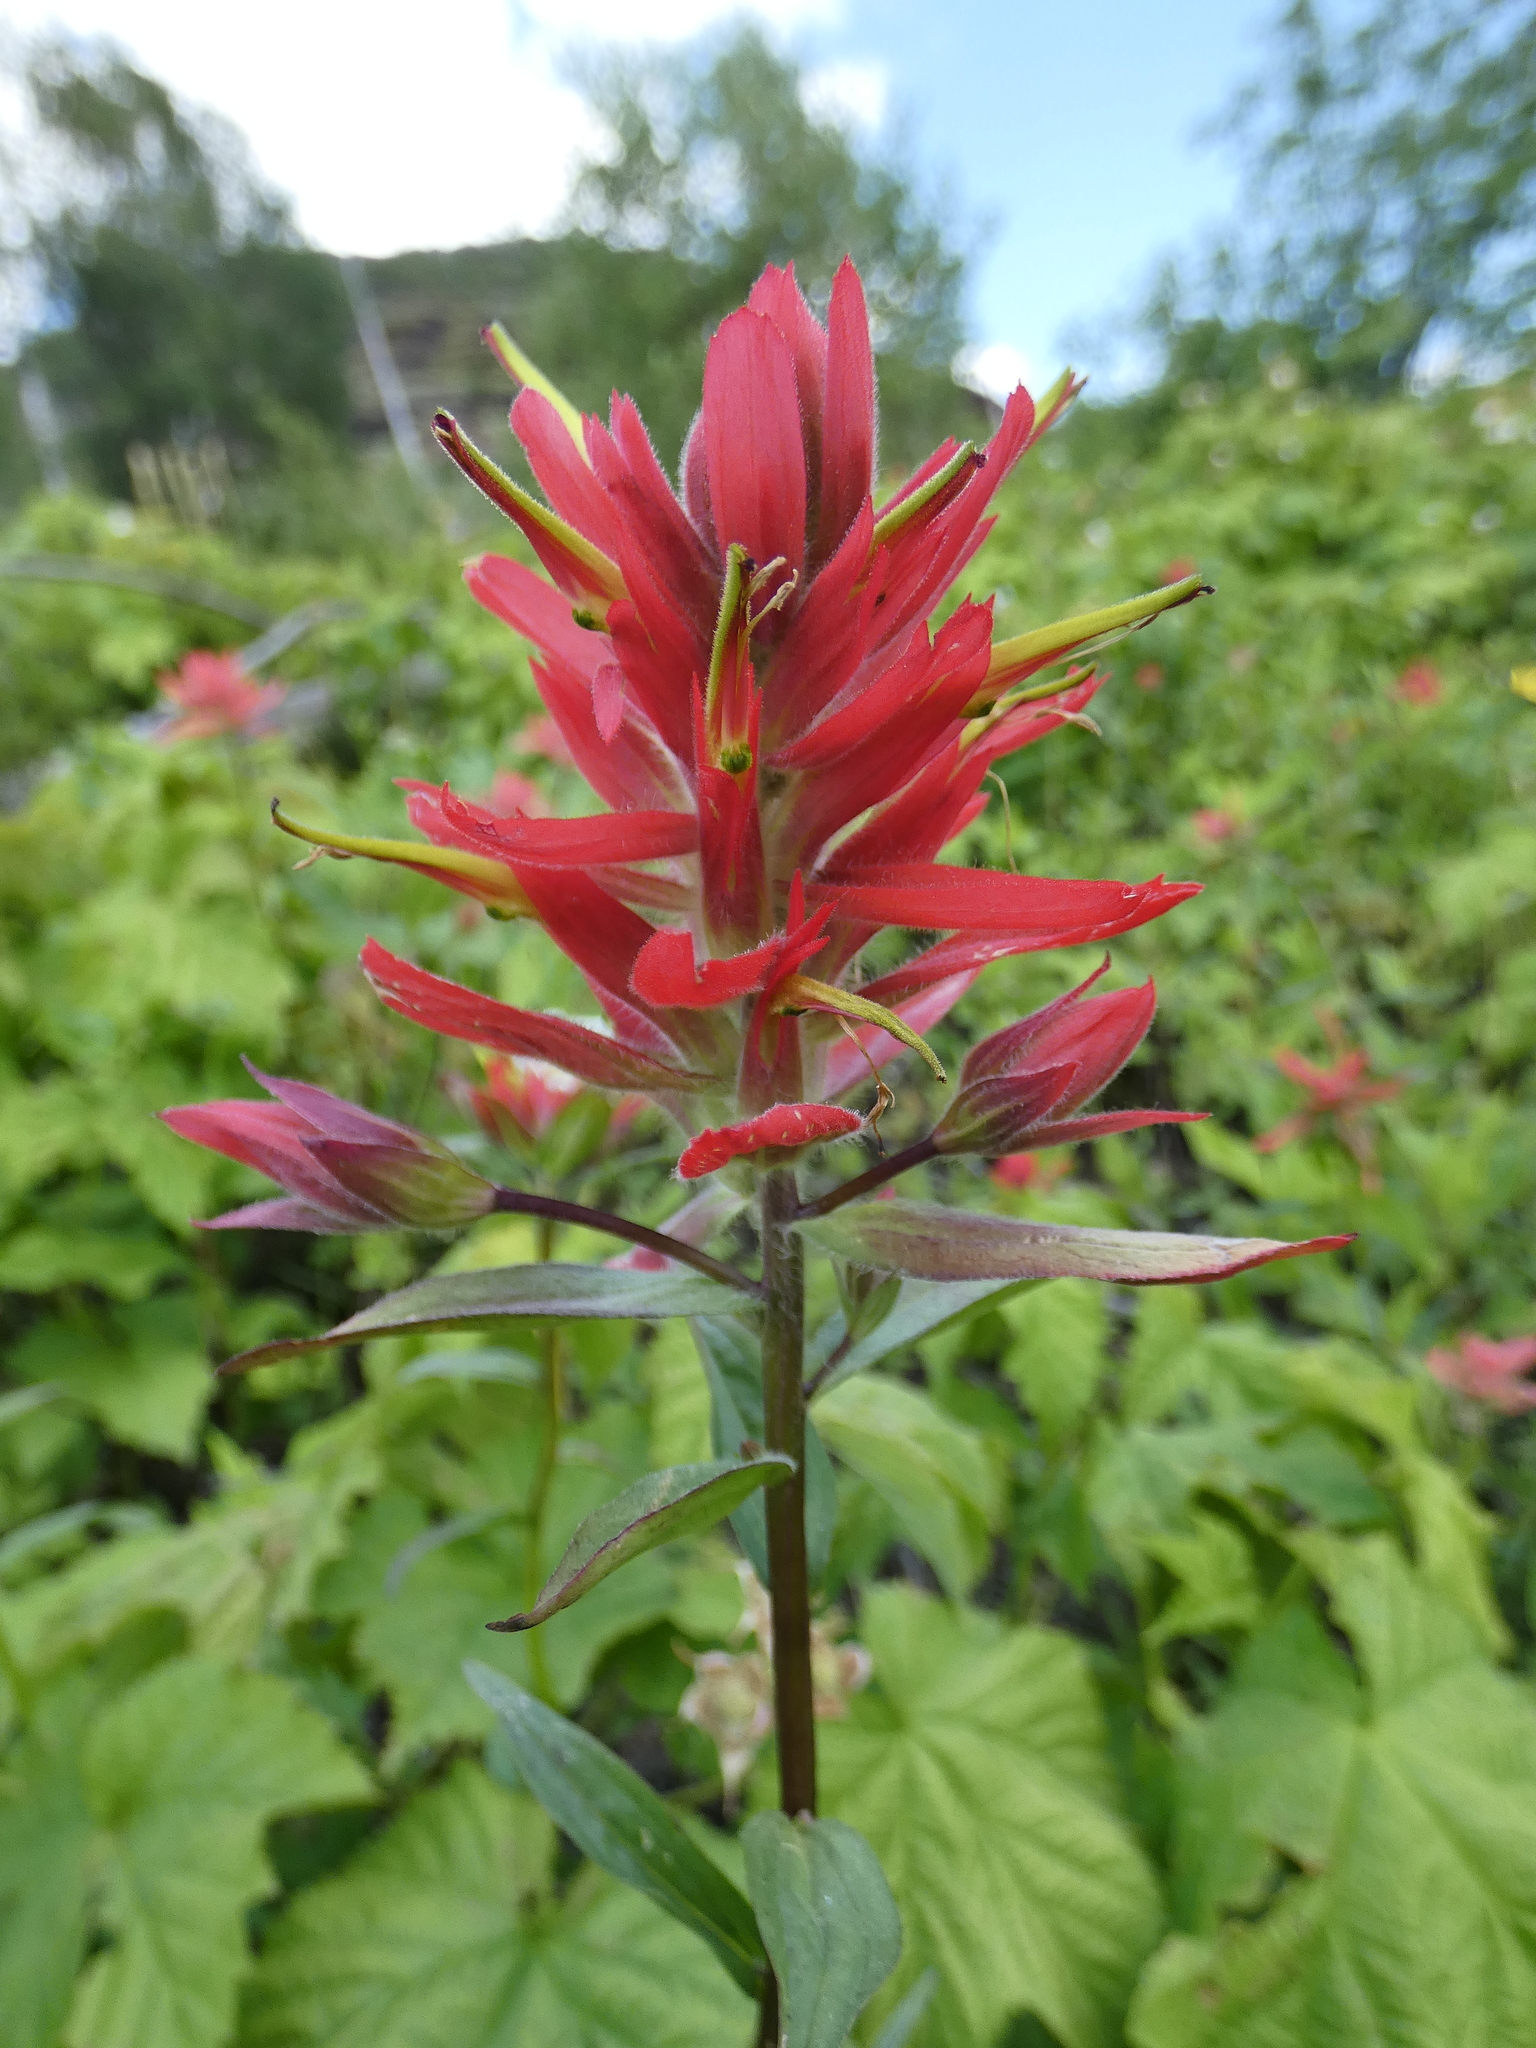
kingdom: Plantae
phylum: Tracheophyta
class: Magnoliopsida
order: Lamiales
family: Orobanchaceae
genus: Castilleja
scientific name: Castilleja miniata
